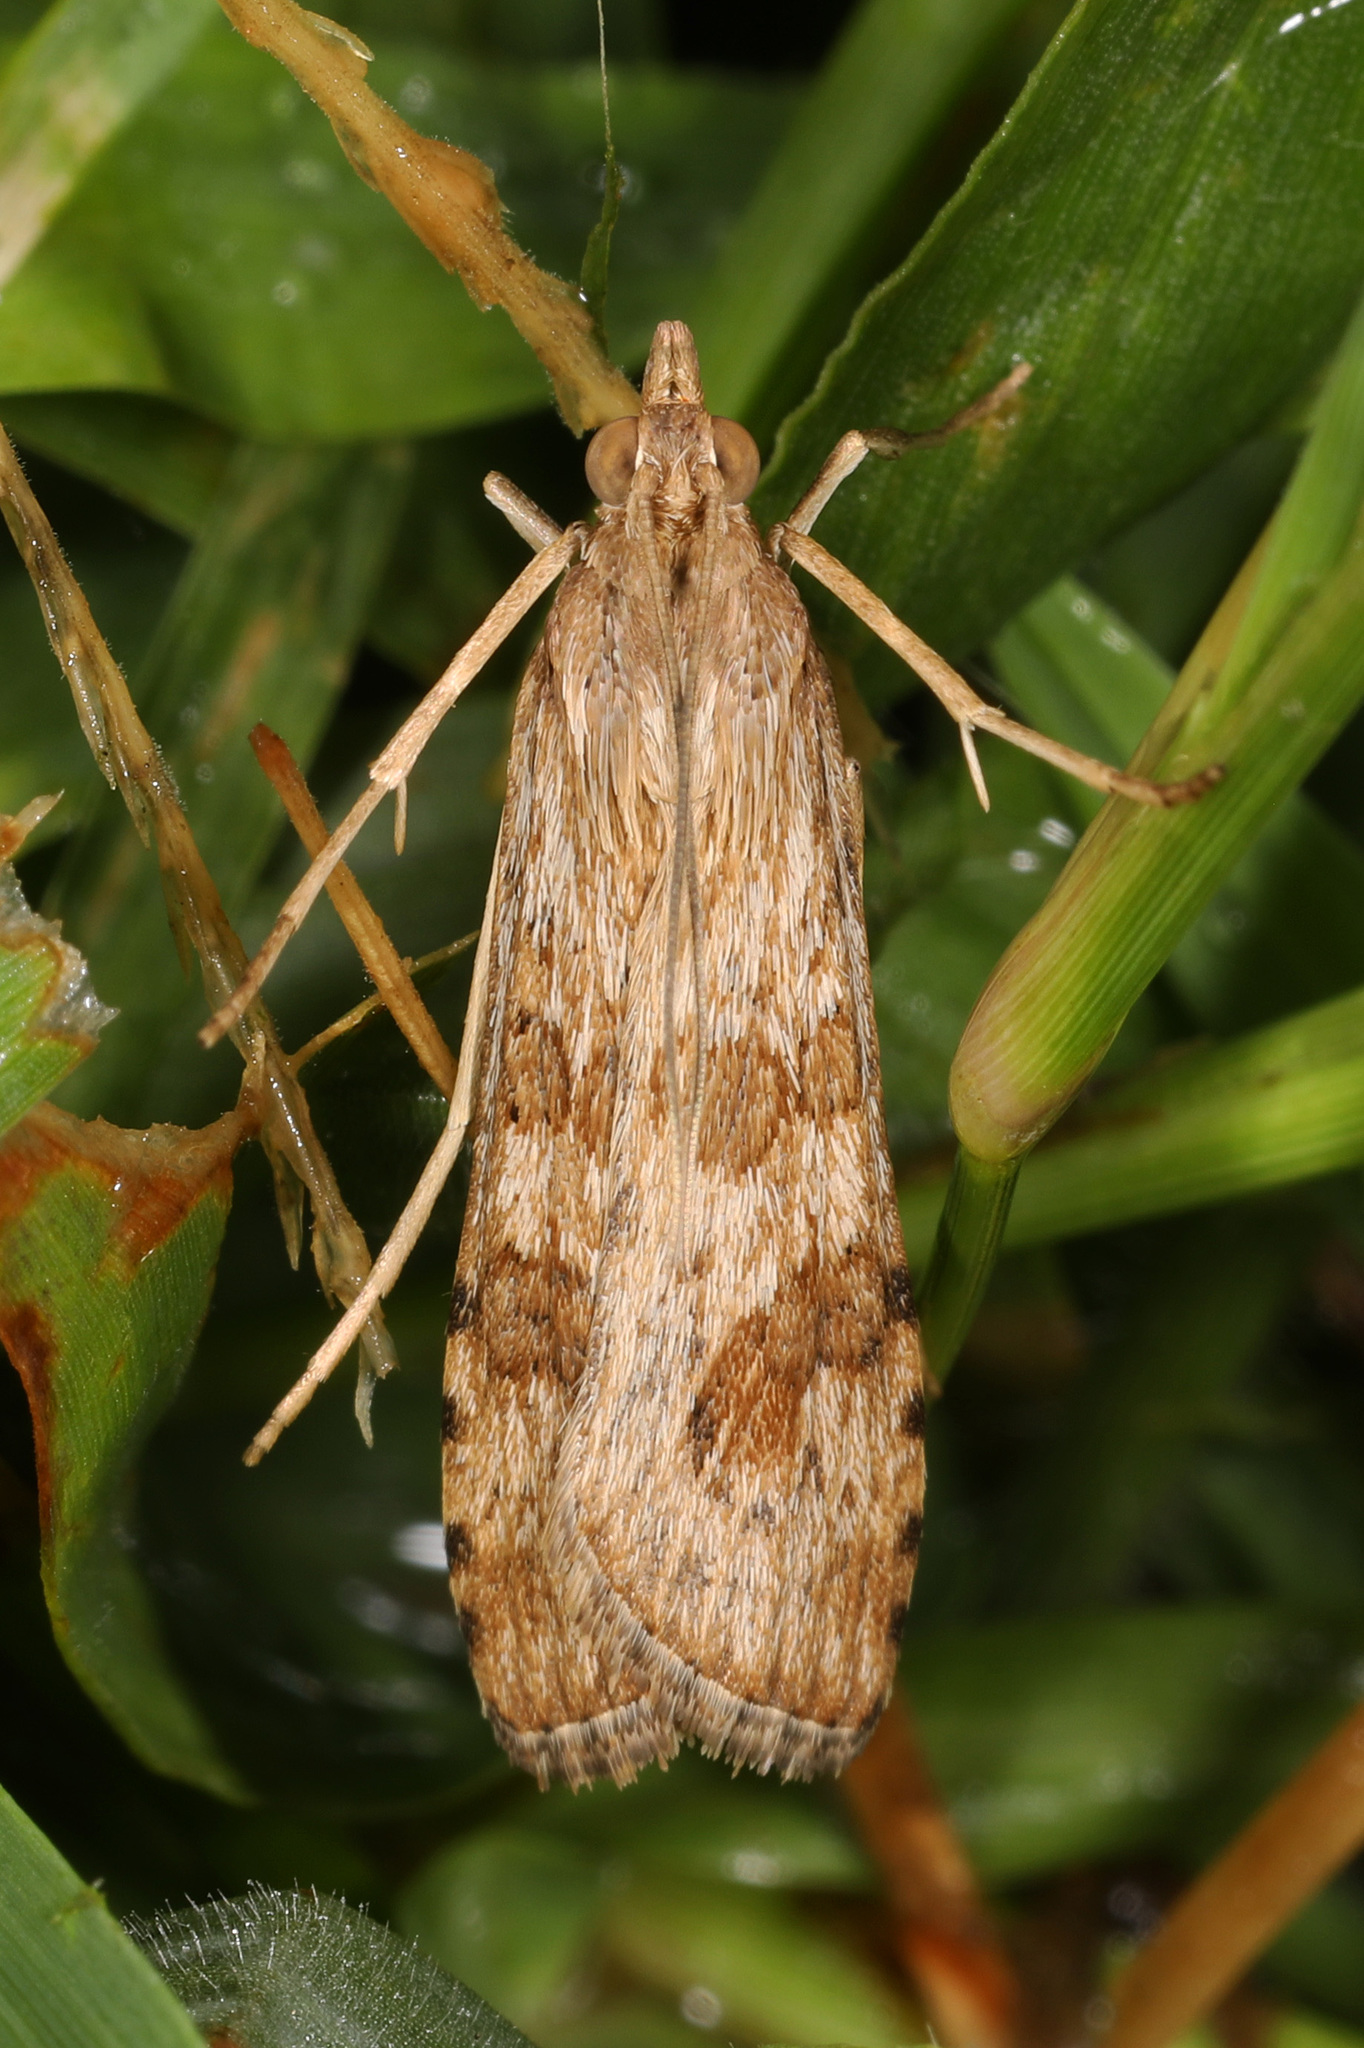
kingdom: Animalia
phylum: Arthropoda
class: Insecta
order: Lepidoptera
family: Crambidae
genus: Nomophila
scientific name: Nomophila nearctica
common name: American rush veneer
